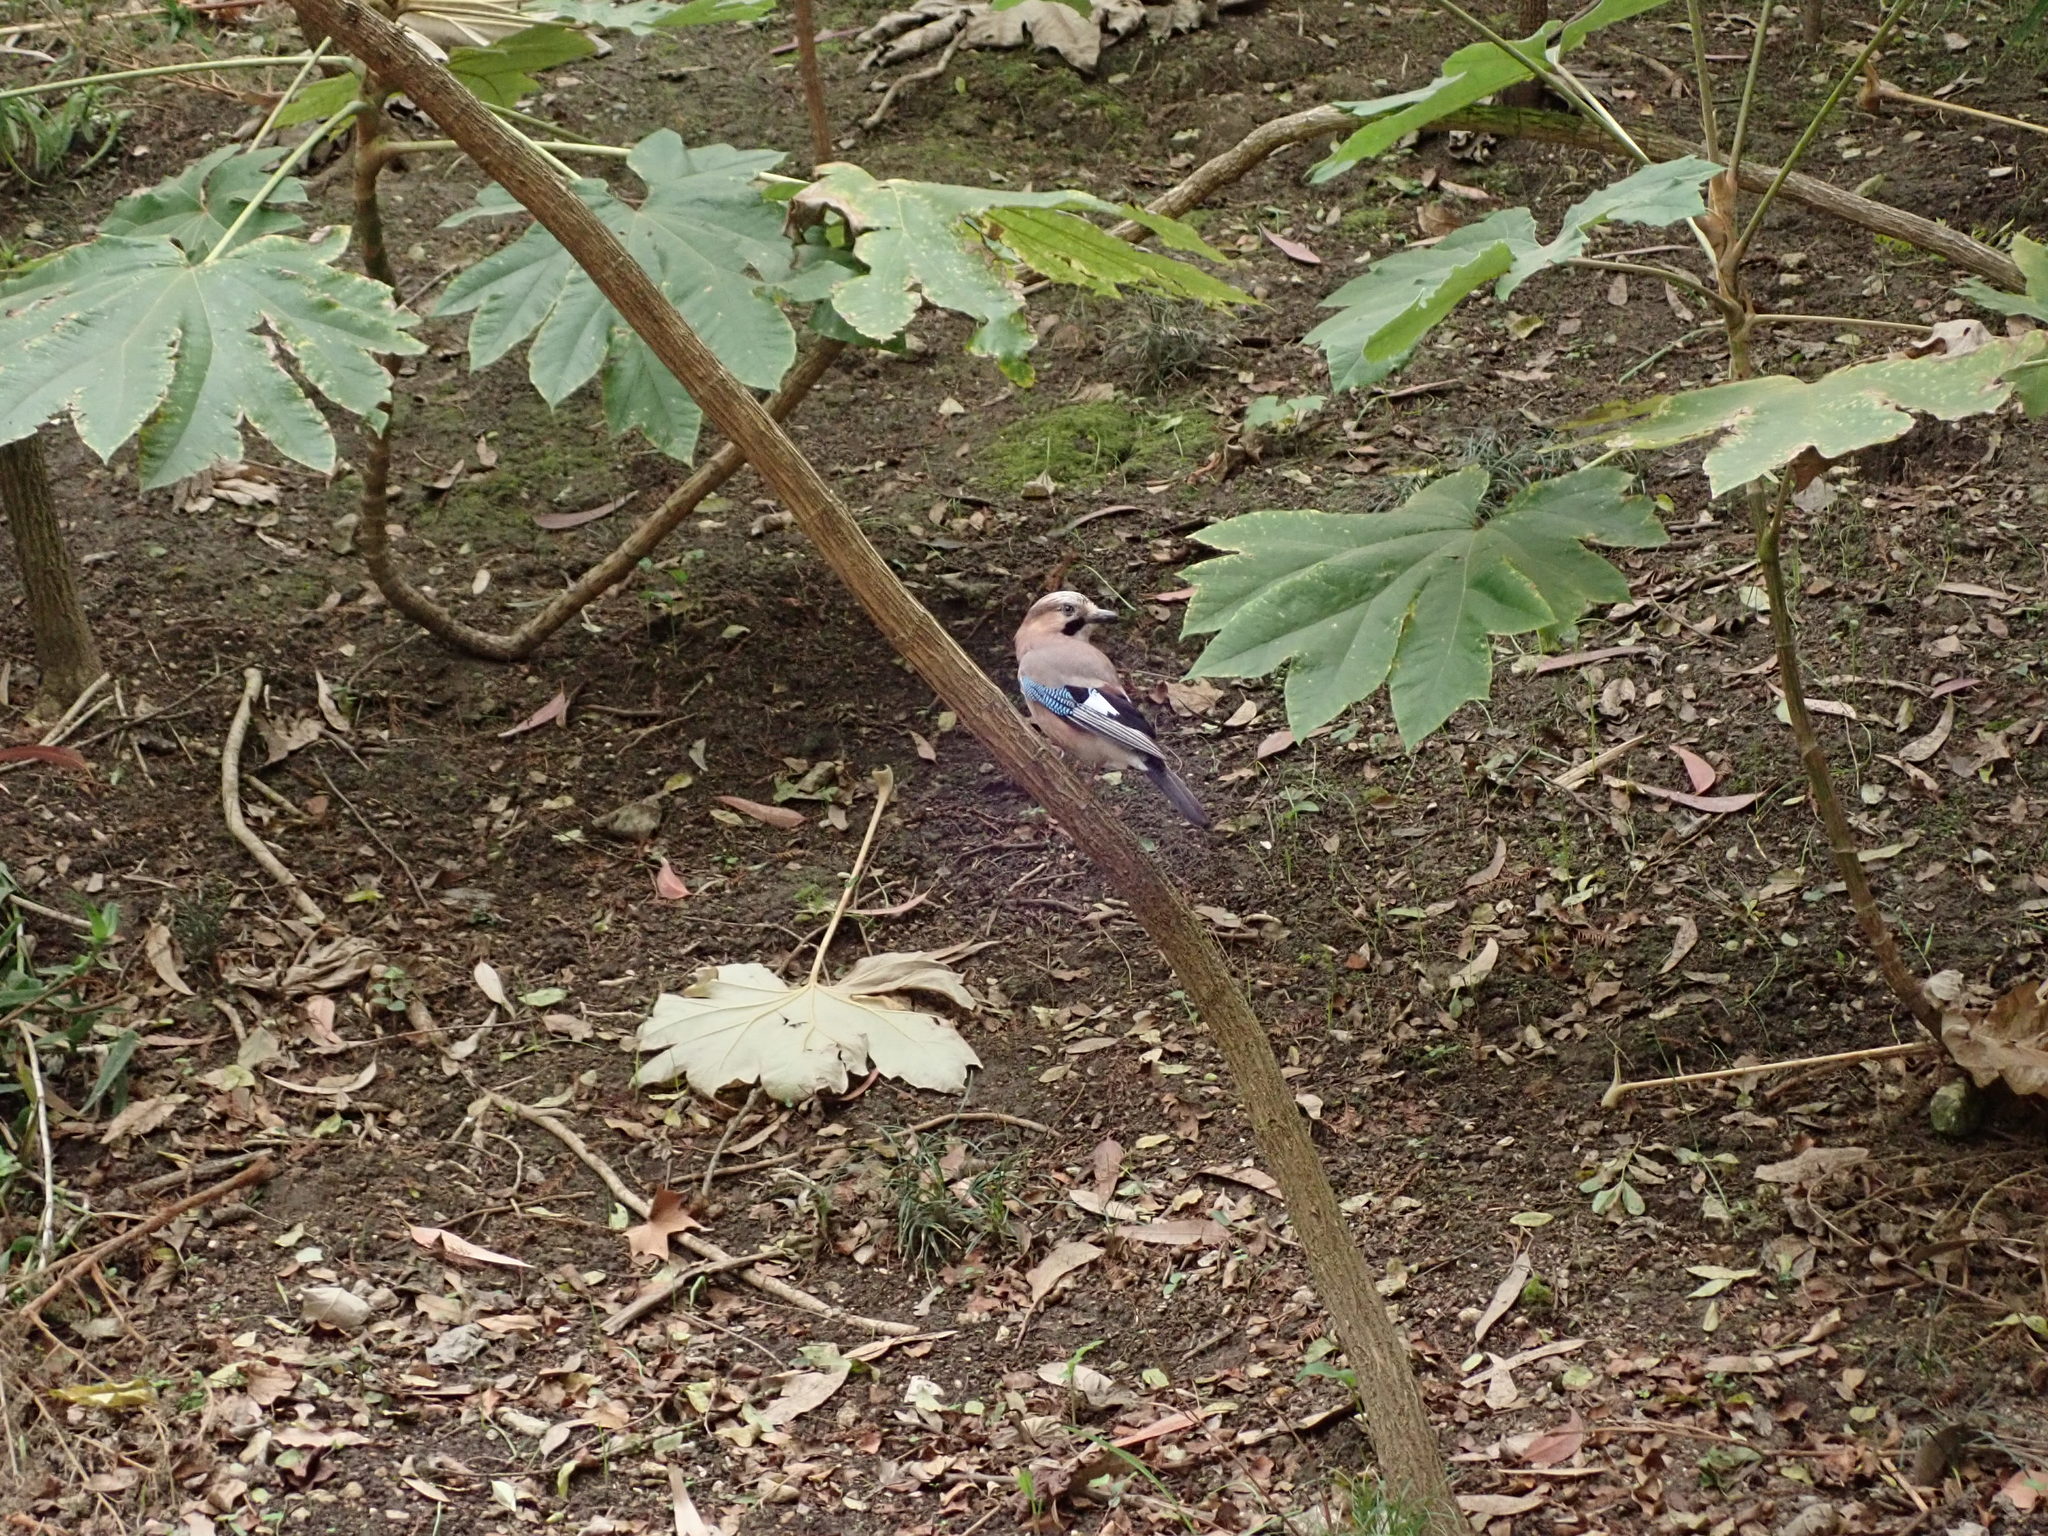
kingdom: Animalia
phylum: Chordata
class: Aves
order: Passeriformes
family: Corvidae
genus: Garrulus
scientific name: Garrulus glandarius
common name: Eurasian jay
